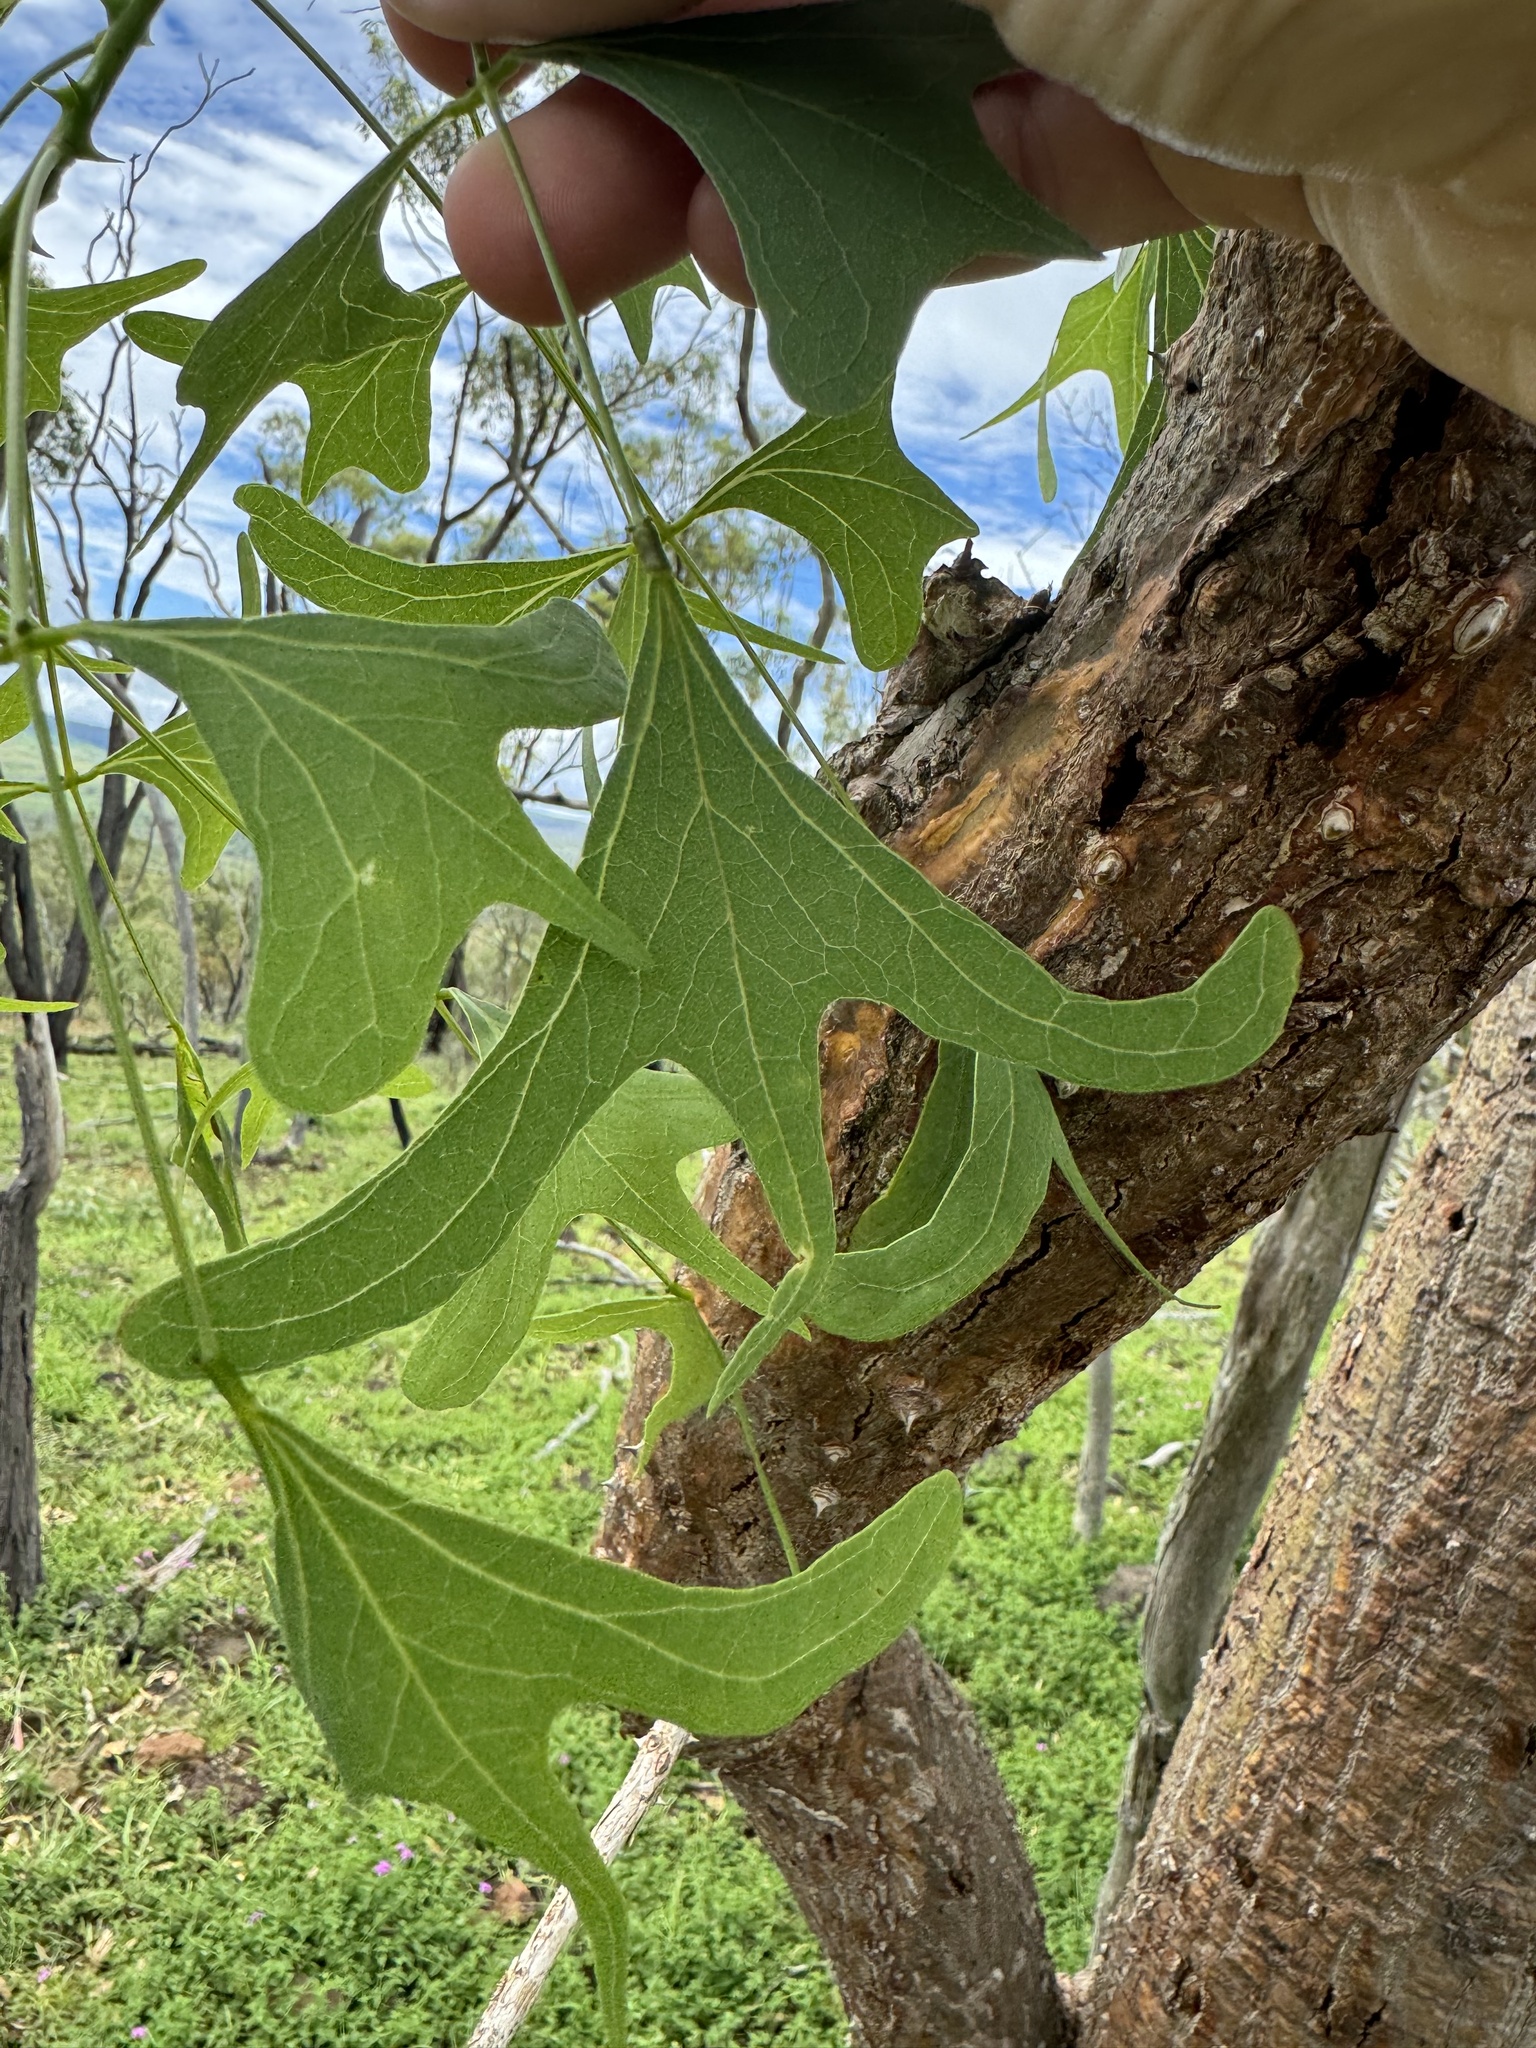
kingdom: Plantae
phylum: Tracheophyta
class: Magnoliopsida
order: Fabales
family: Fabaceae
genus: Erythrina
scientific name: Erythrina vespertilio
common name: Bat-wing coral tree
